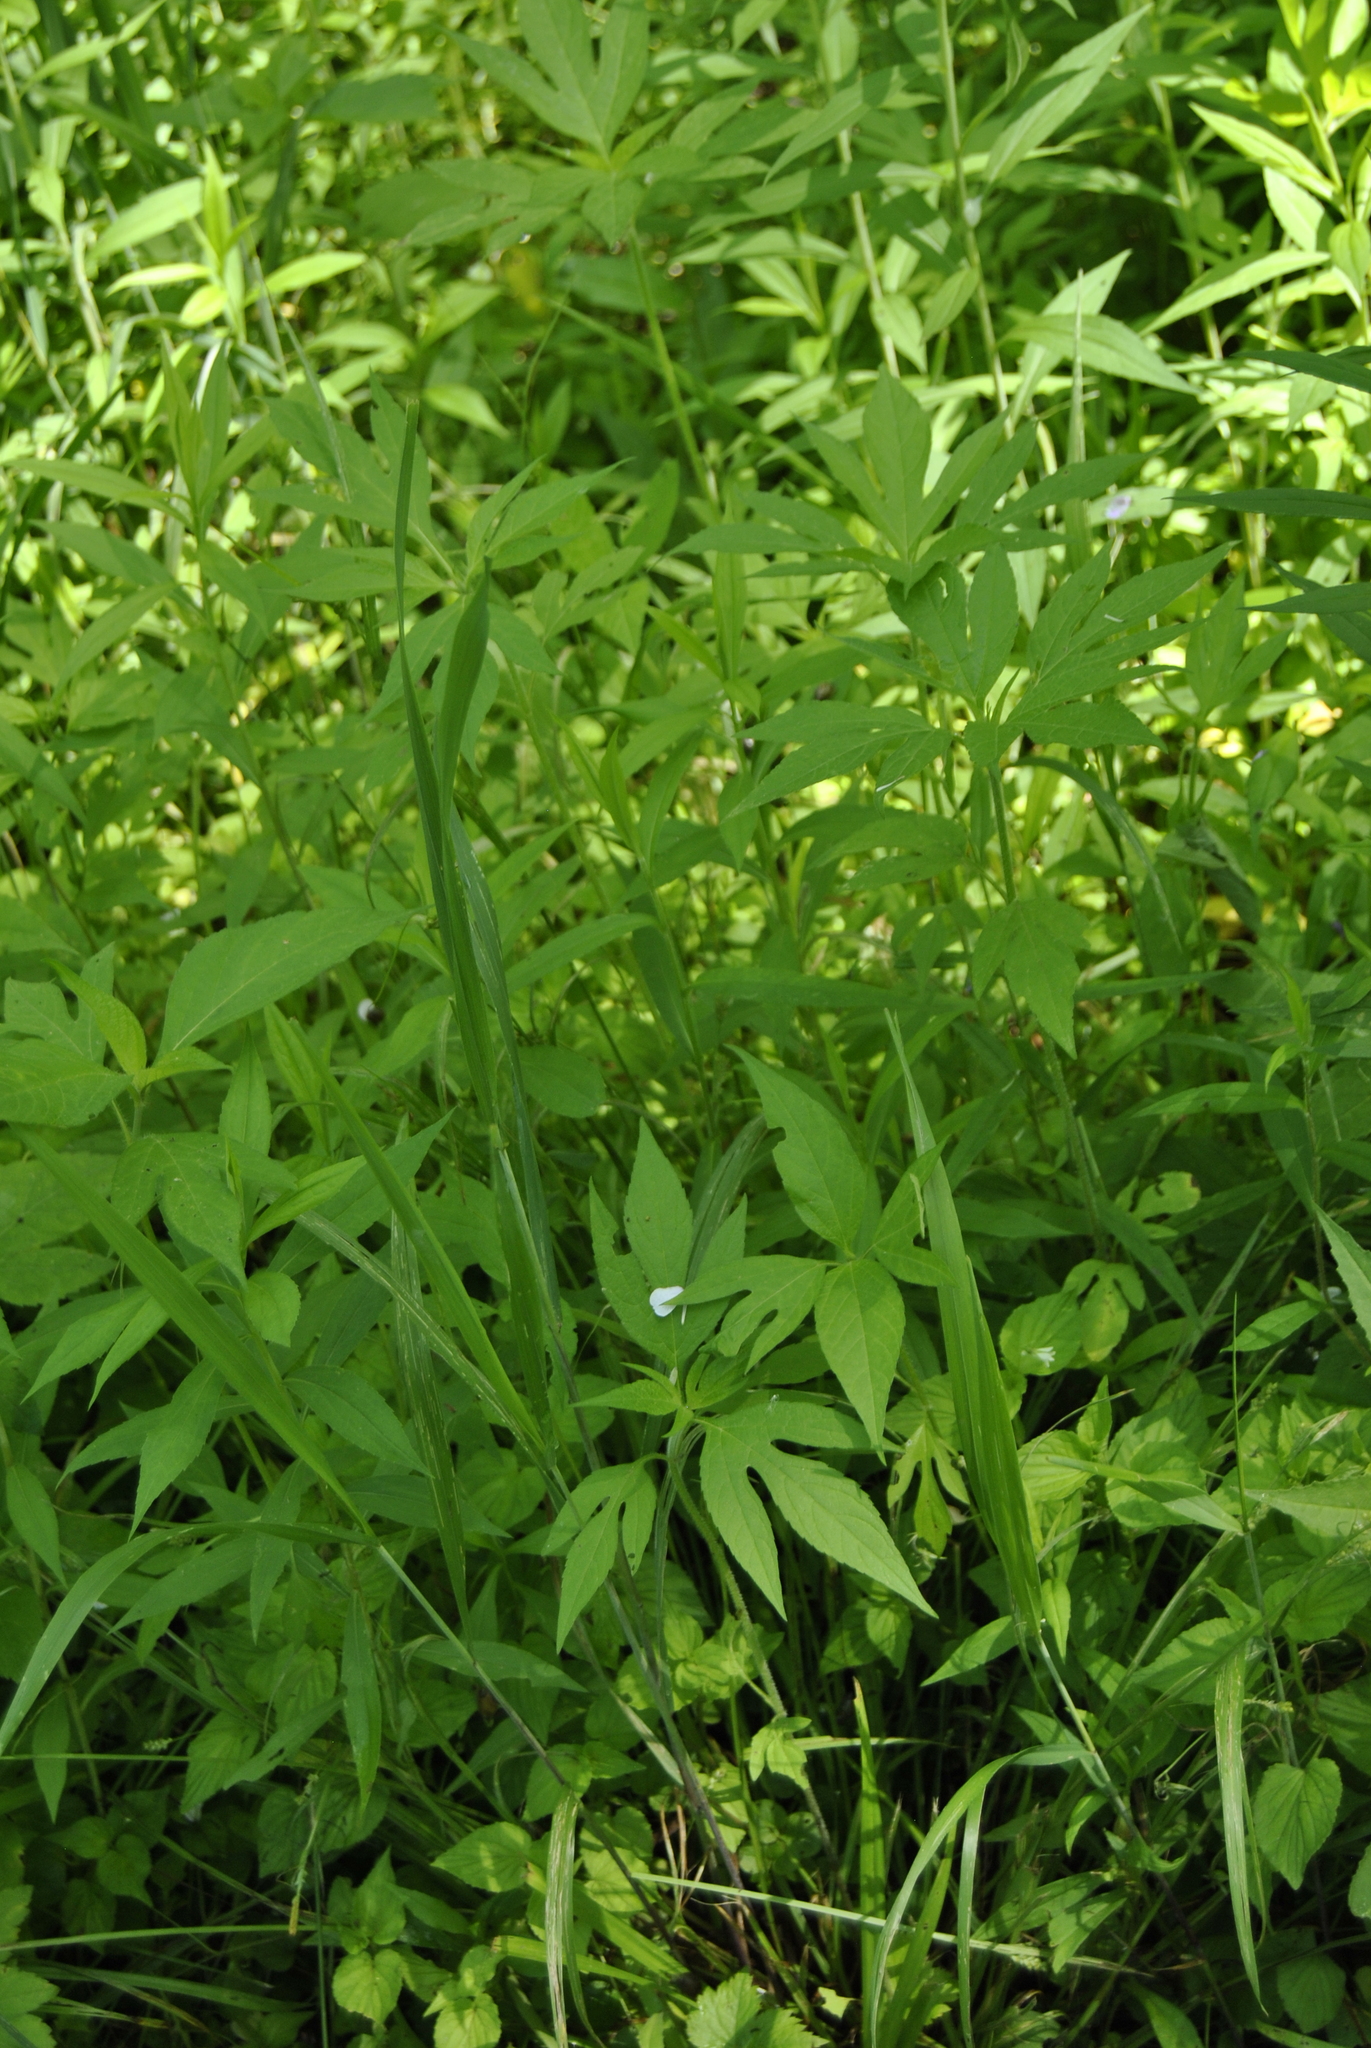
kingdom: Plantae
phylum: Tracheophyta
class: Magnoliopsida
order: Asterales
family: Asteraceae
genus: Ambrosia
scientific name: Ambrosia trifida
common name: Giant ragweed
